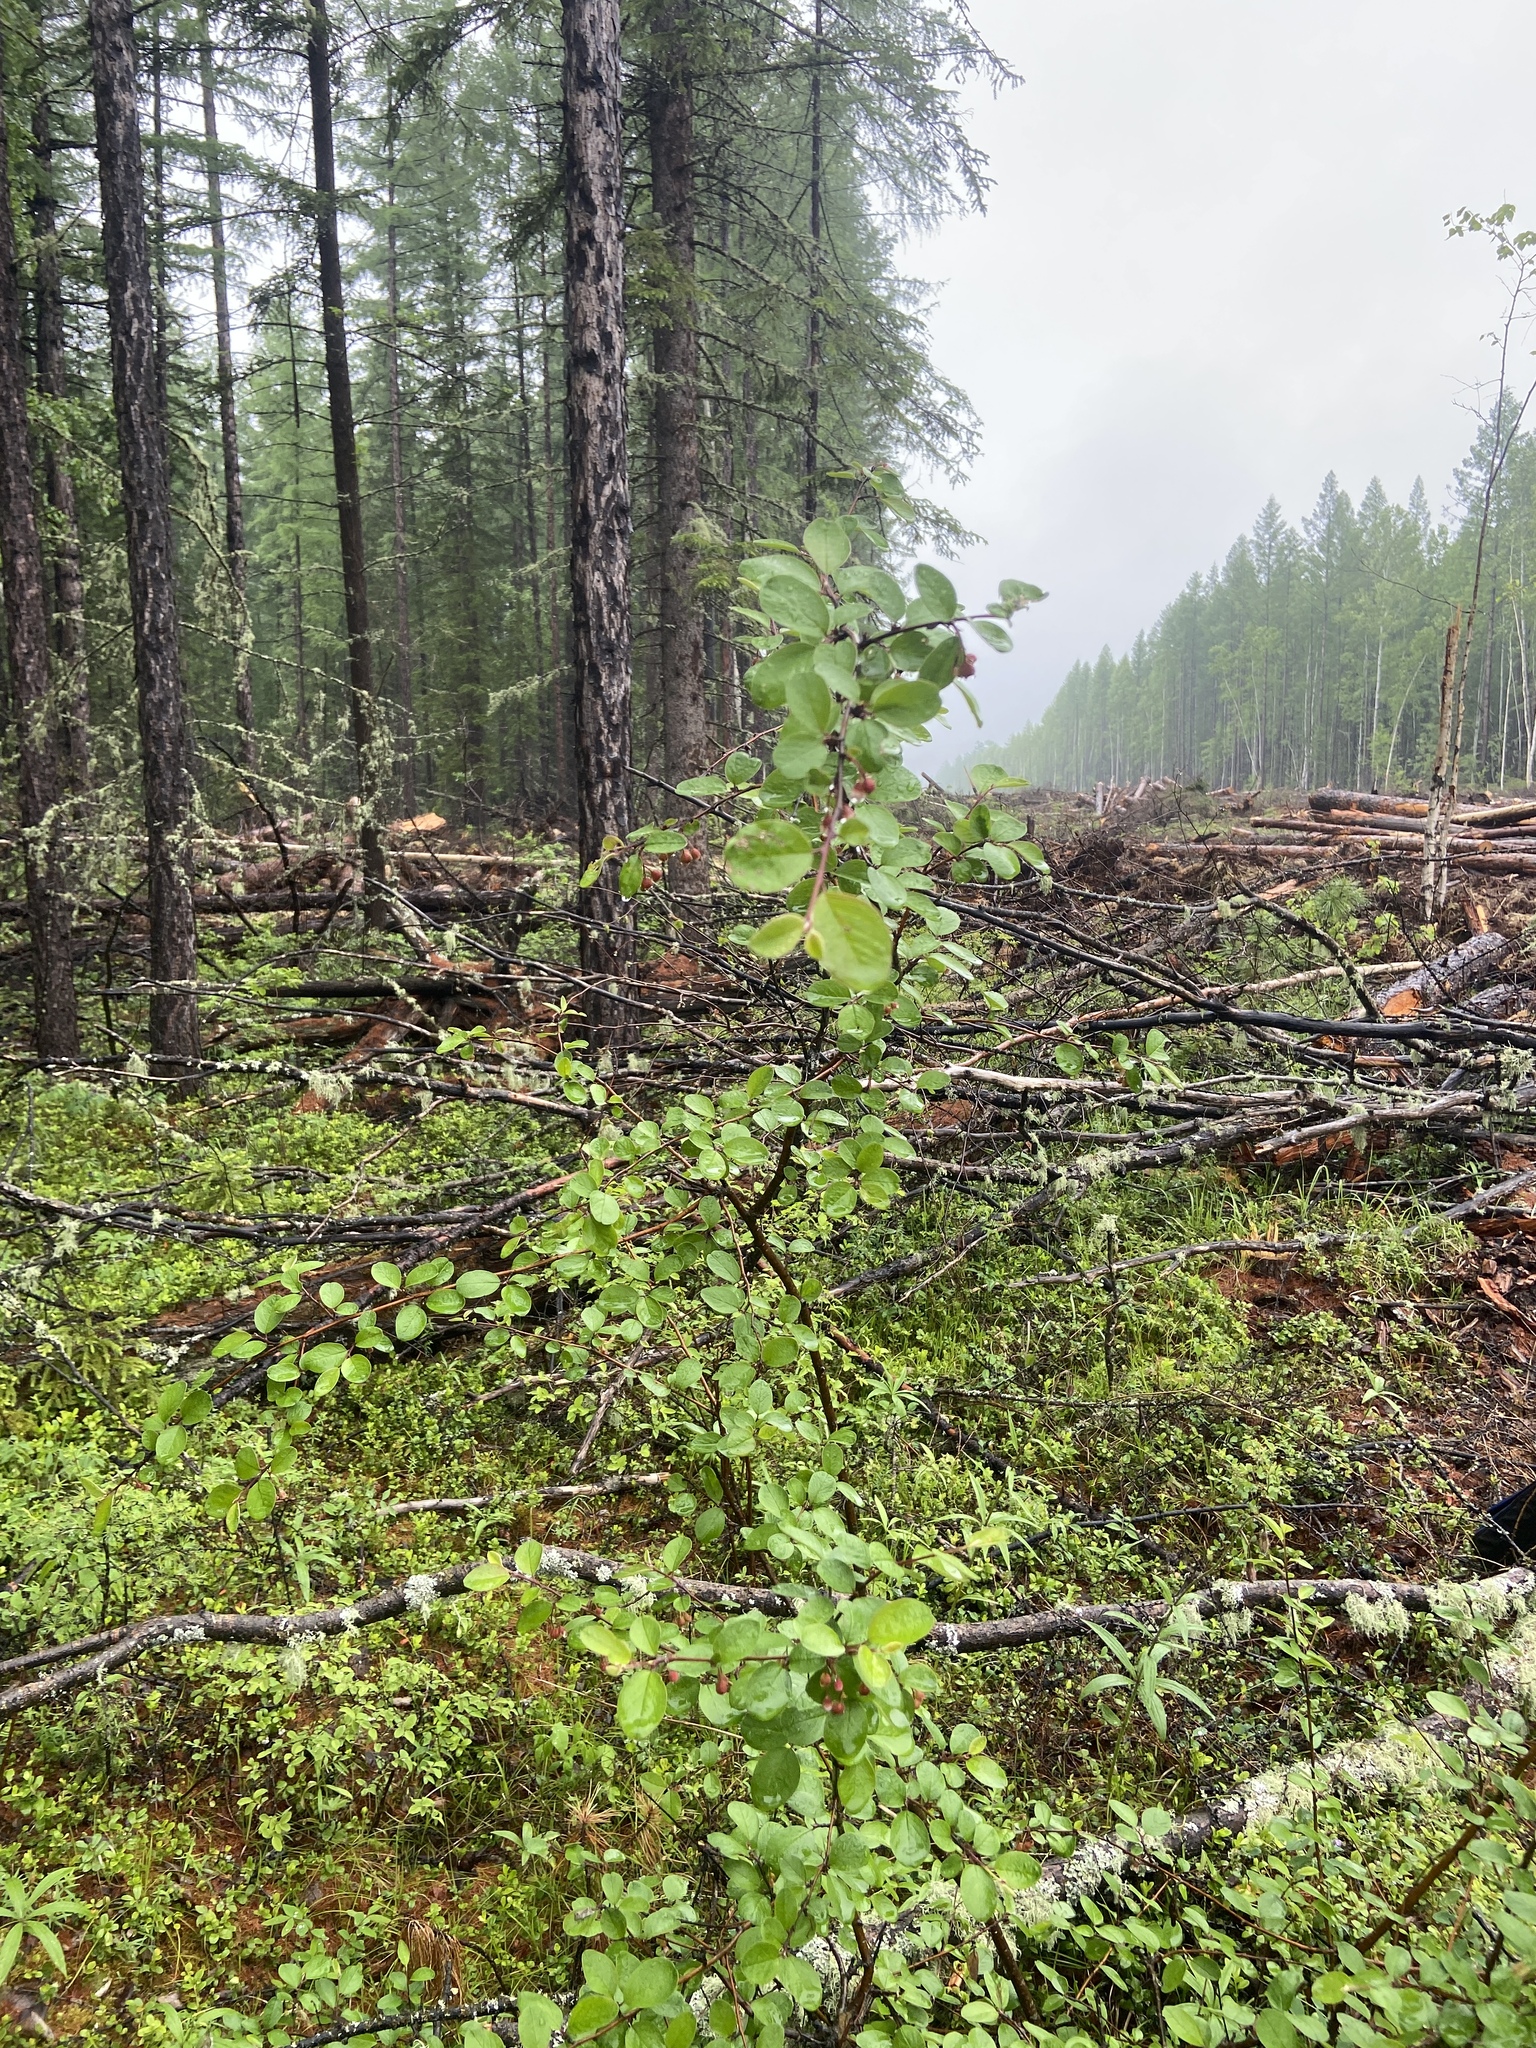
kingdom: Plantae
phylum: Tracheophyta
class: Magnoliopsida
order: Rosales
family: Rosaceae
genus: Cotoneaster
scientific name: Cotoneaster melanocarpus
